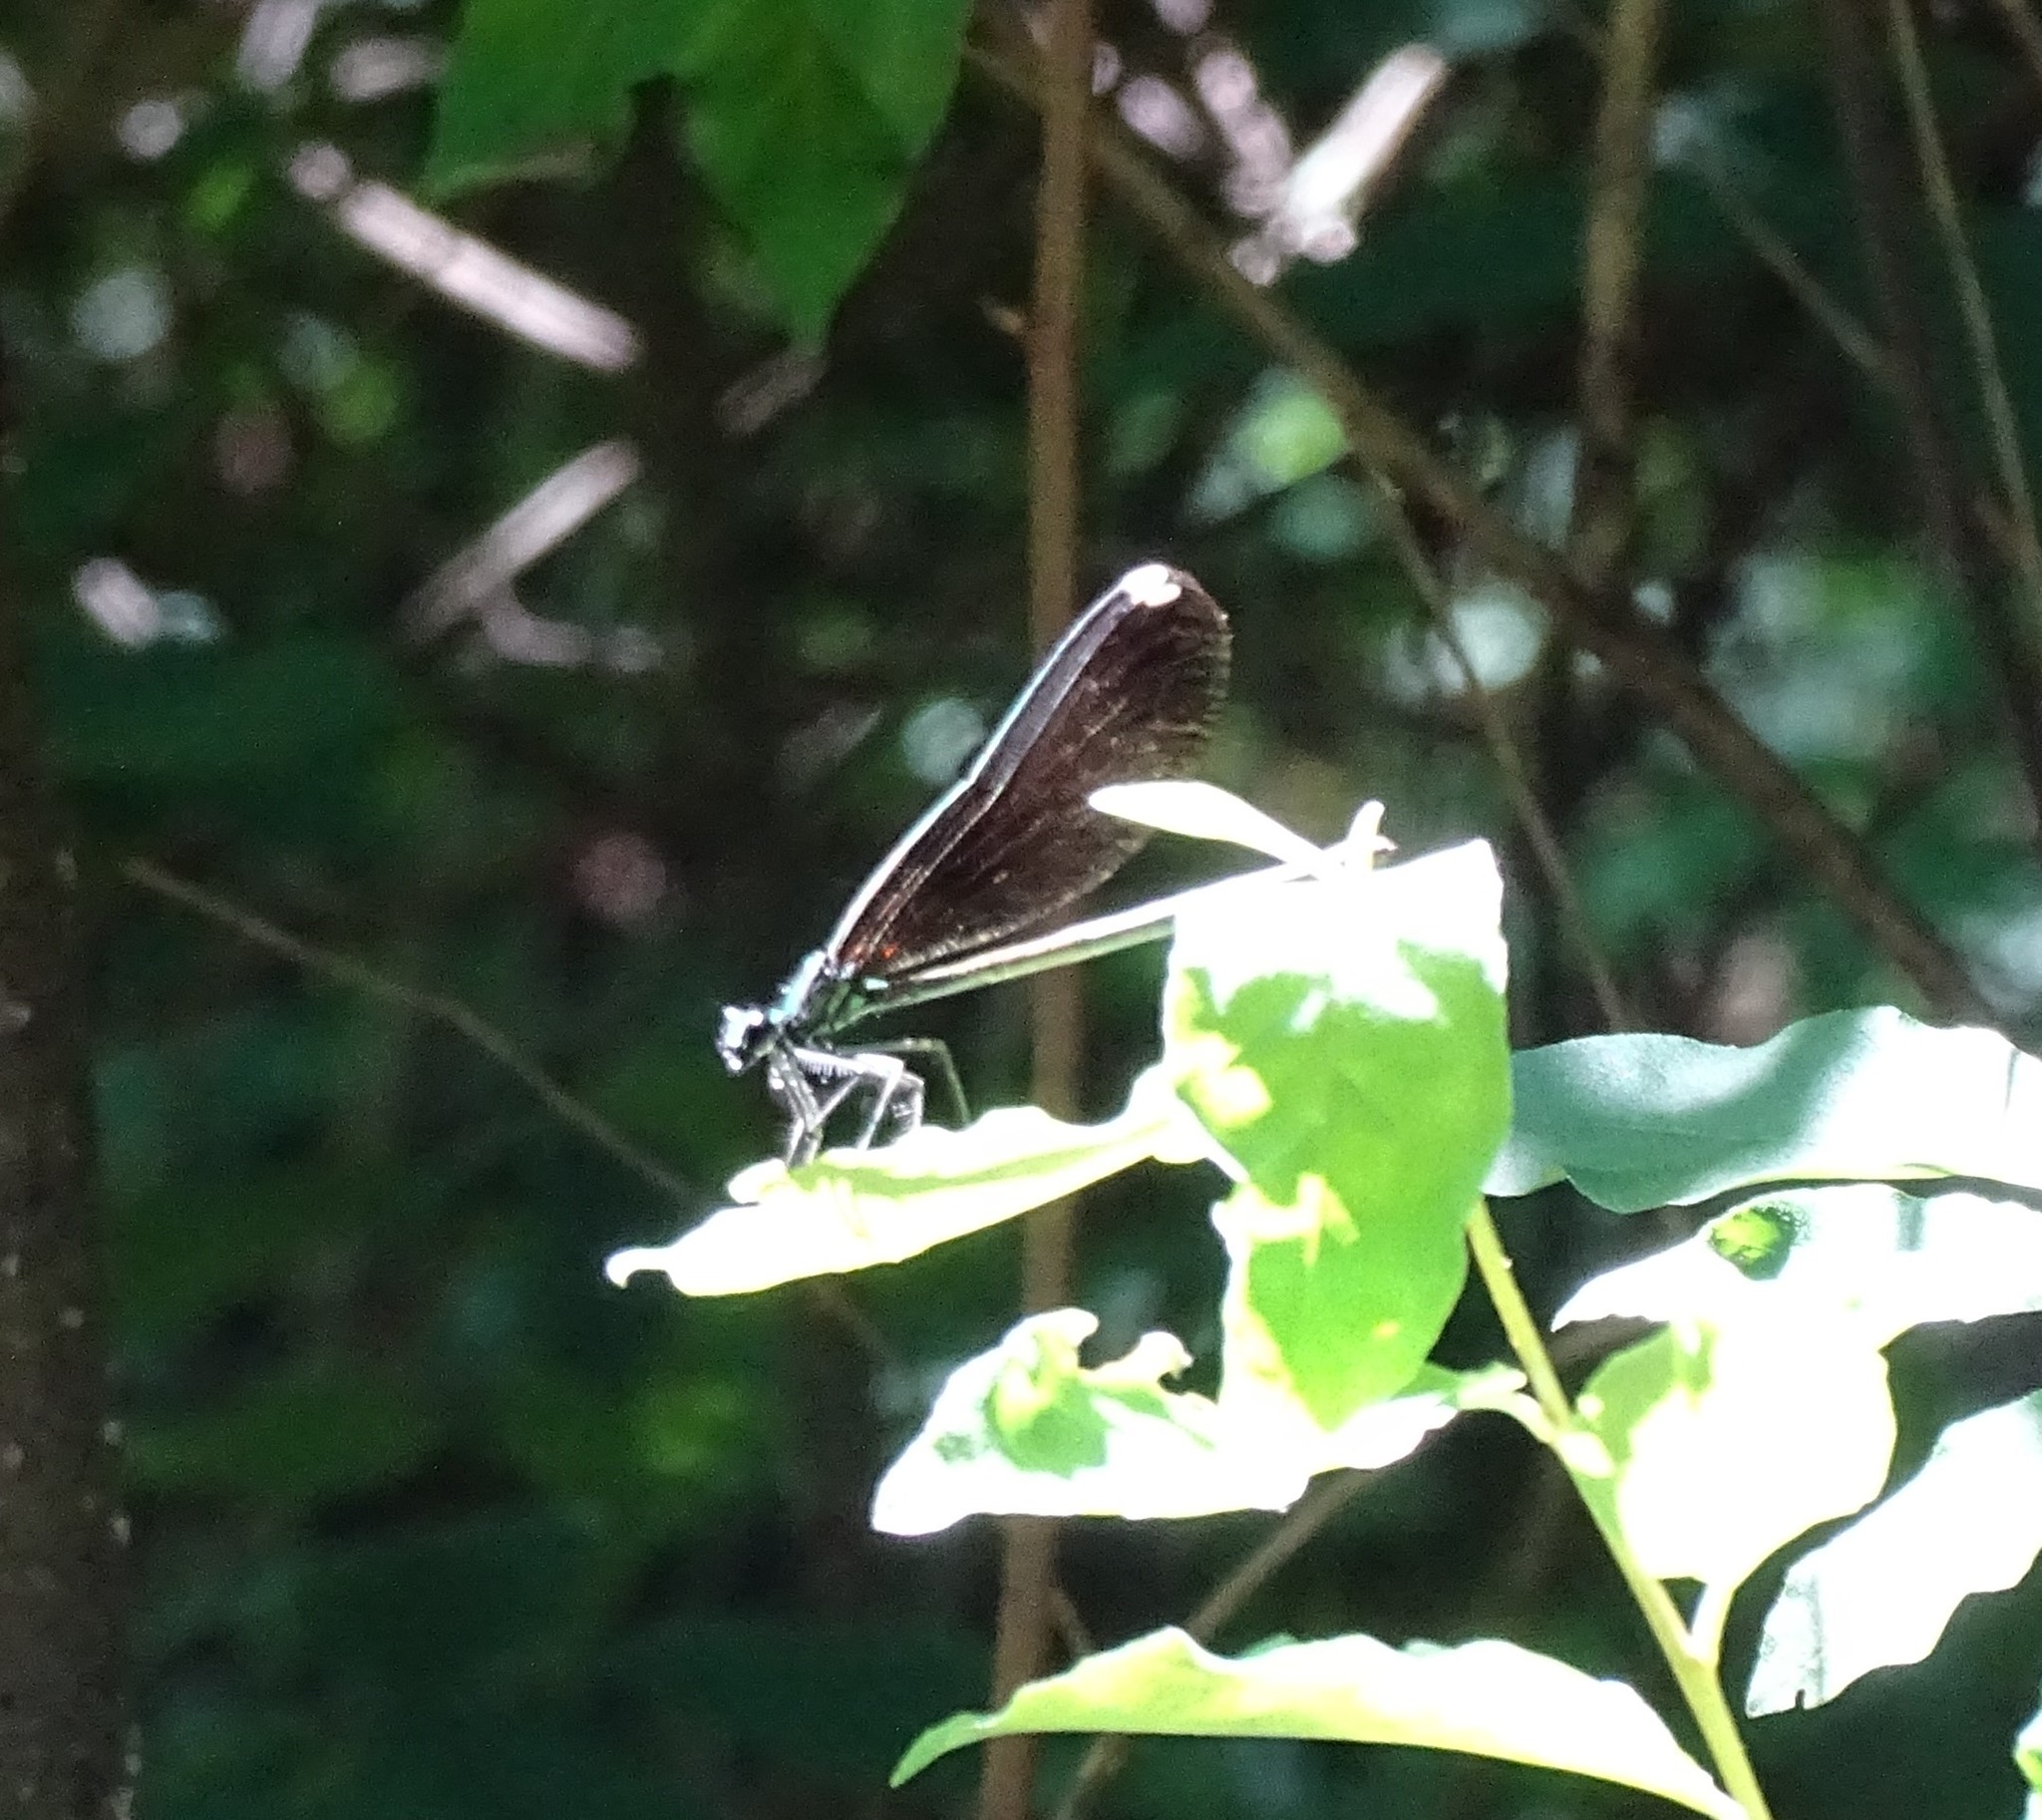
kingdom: Animalia
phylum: Arthropoda
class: Insecta
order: Odonata
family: Calopterygidae
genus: Calopteryx
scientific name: Calopteryx maculata
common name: Ebony jewelwing
